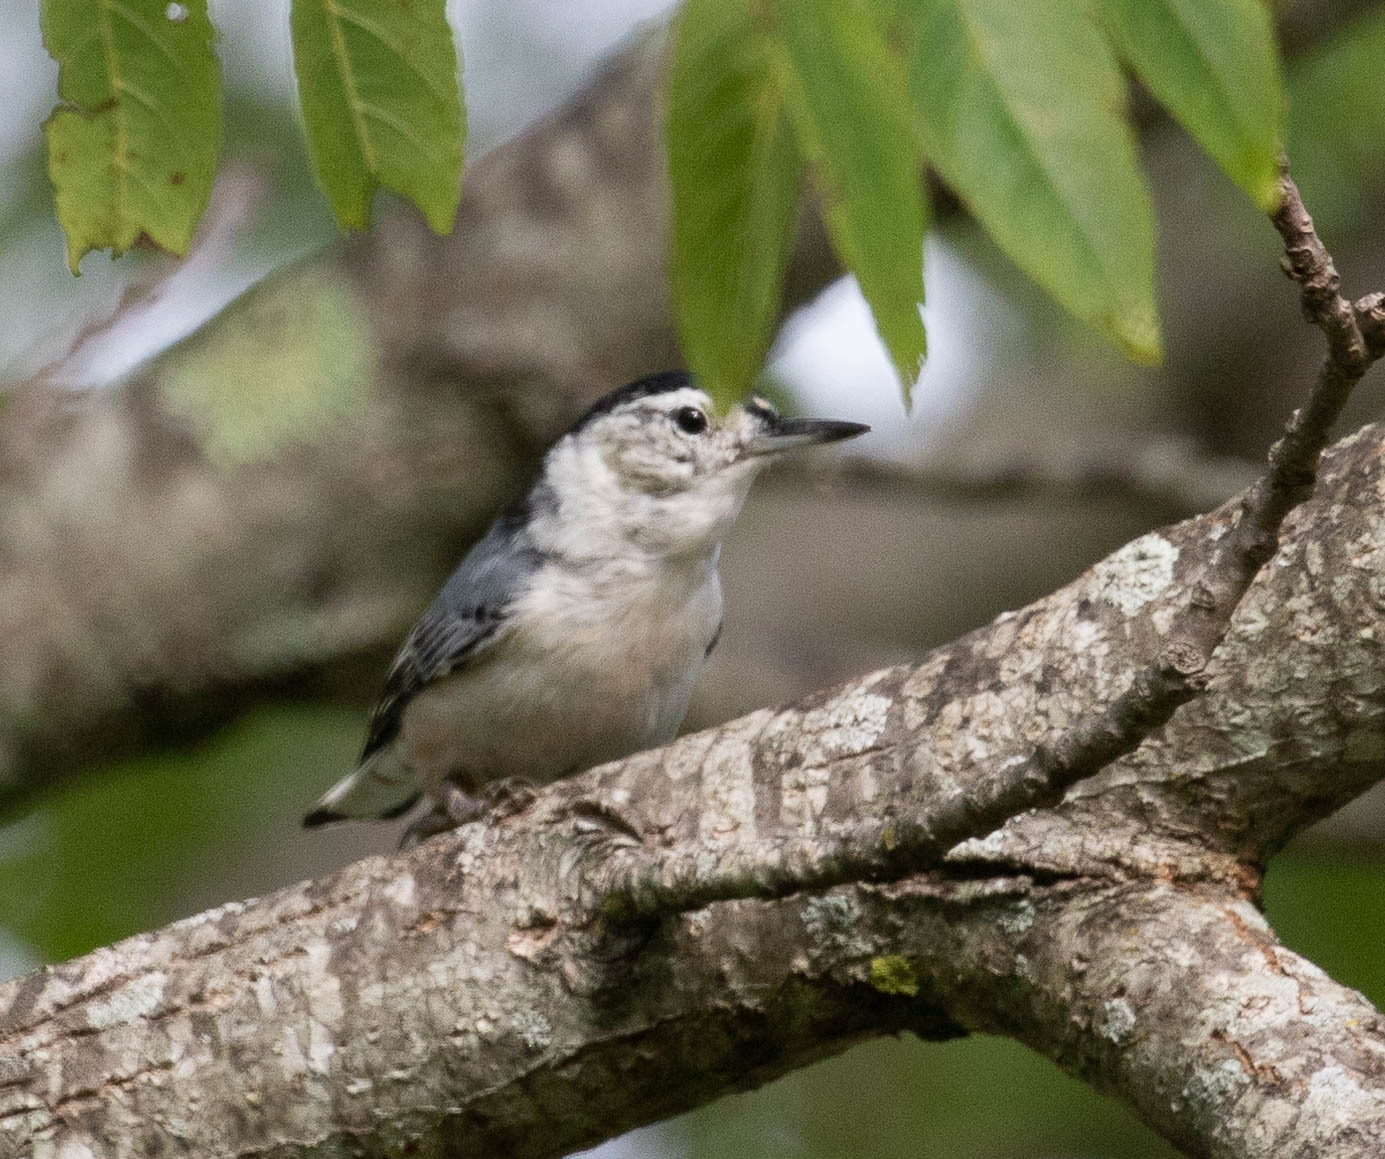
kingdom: Animalia
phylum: Chordata
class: Aves
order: Passeriformes
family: Sittidae
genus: Sitta
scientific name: Sitta carolinensis
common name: White-breasted nuthatch
